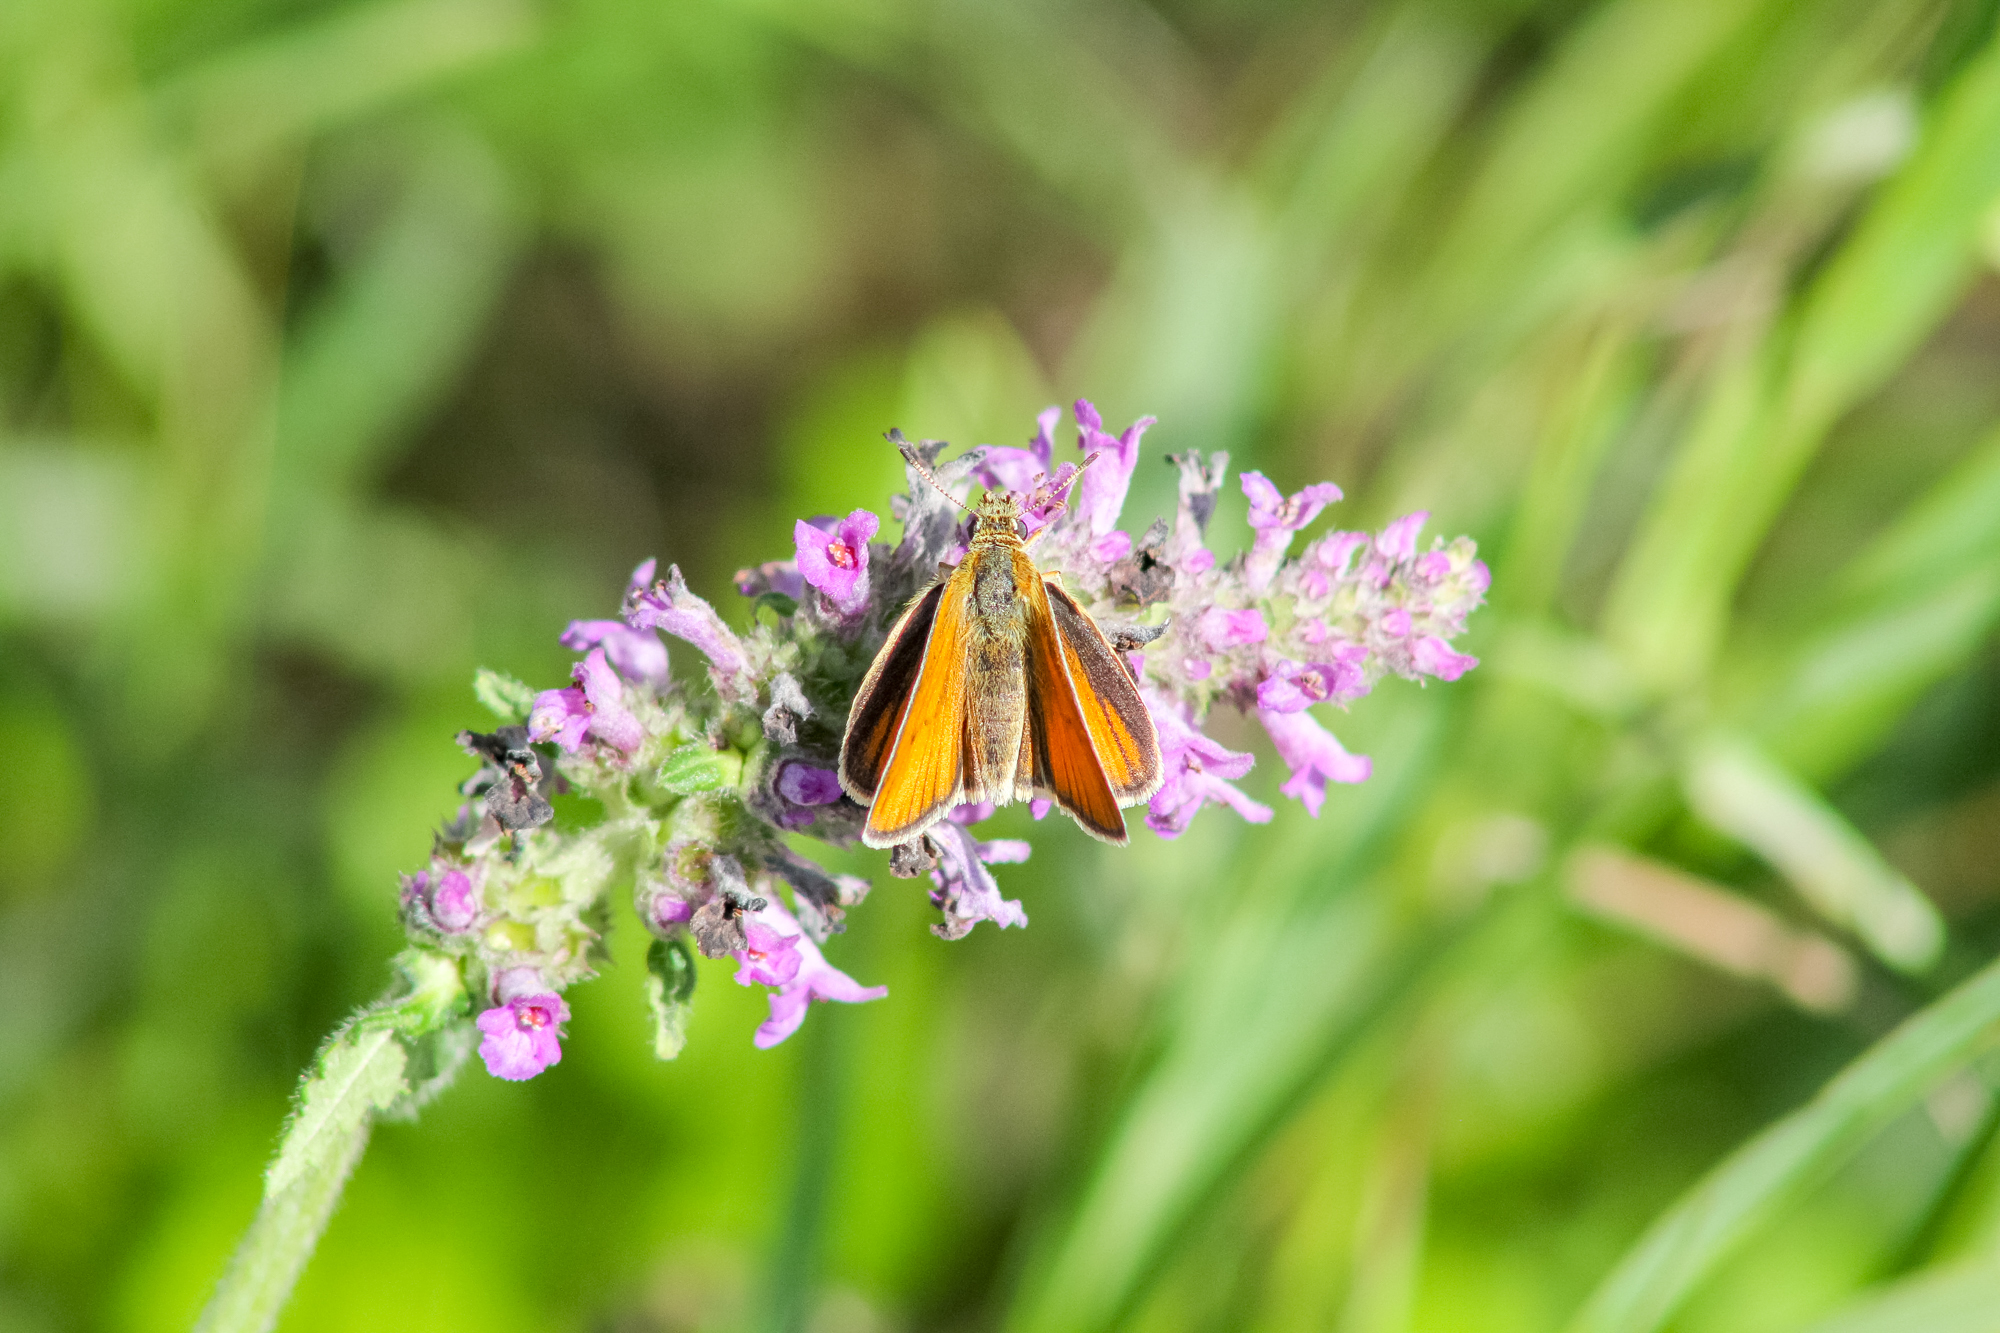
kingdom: Animalia
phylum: Arthropoda
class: Insecta
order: Lepidoptera
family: Hesperiidae
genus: Thymelicus
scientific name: Thymelicus lineola
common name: Essex skipper
